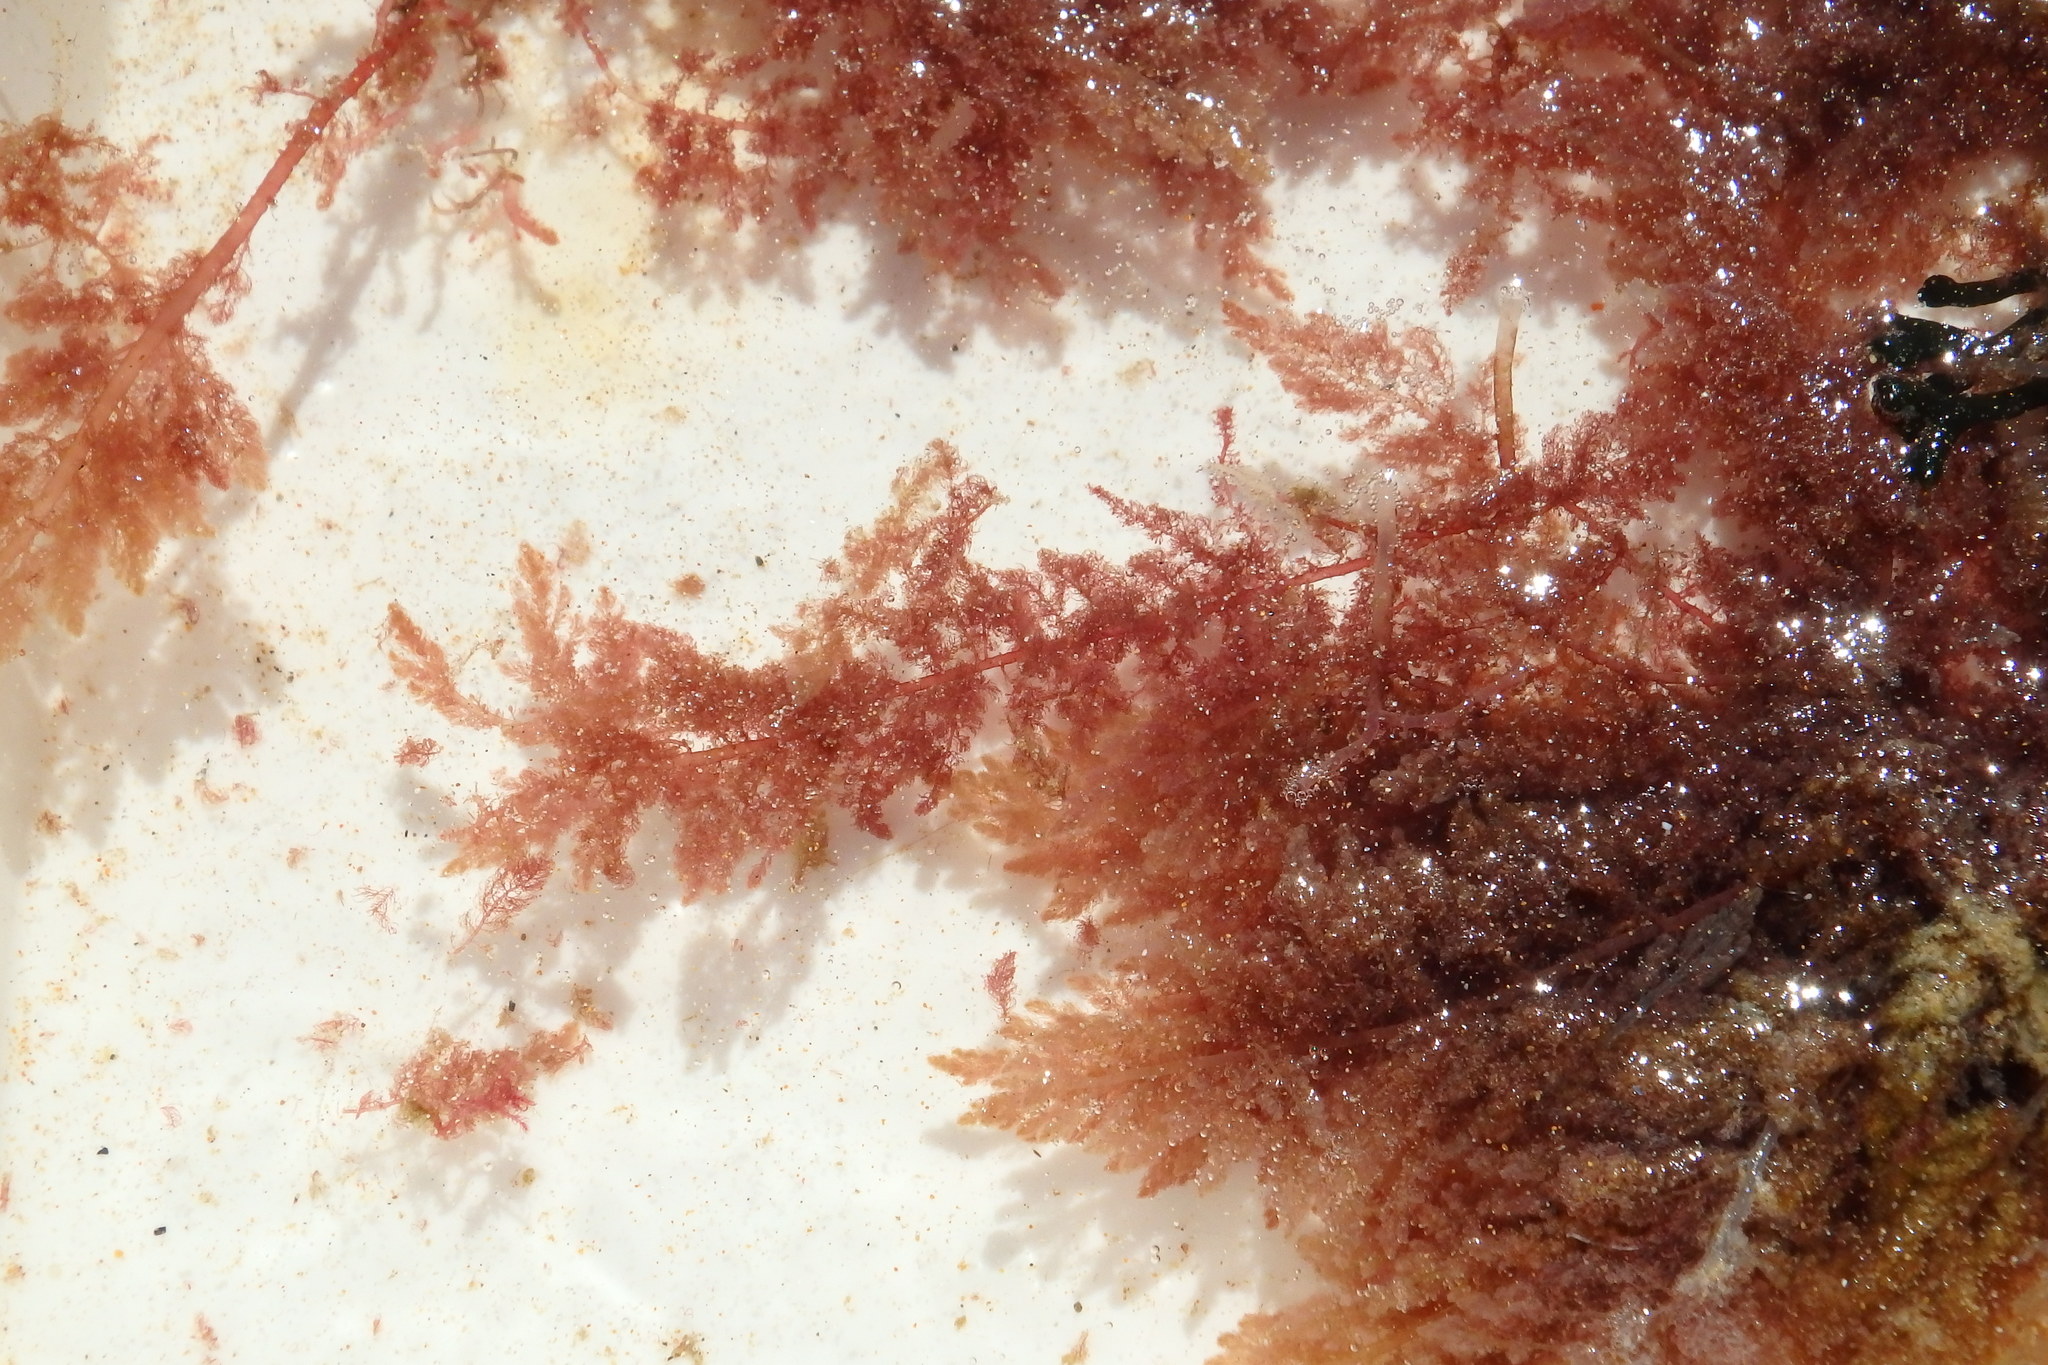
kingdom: Plantae
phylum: Rhodophyta
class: Florideophyceae
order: Bonnemaisoniales
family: Bonnemaisoniaceae
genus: Asparagopsis
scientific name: Asparagopsis taxiformis
